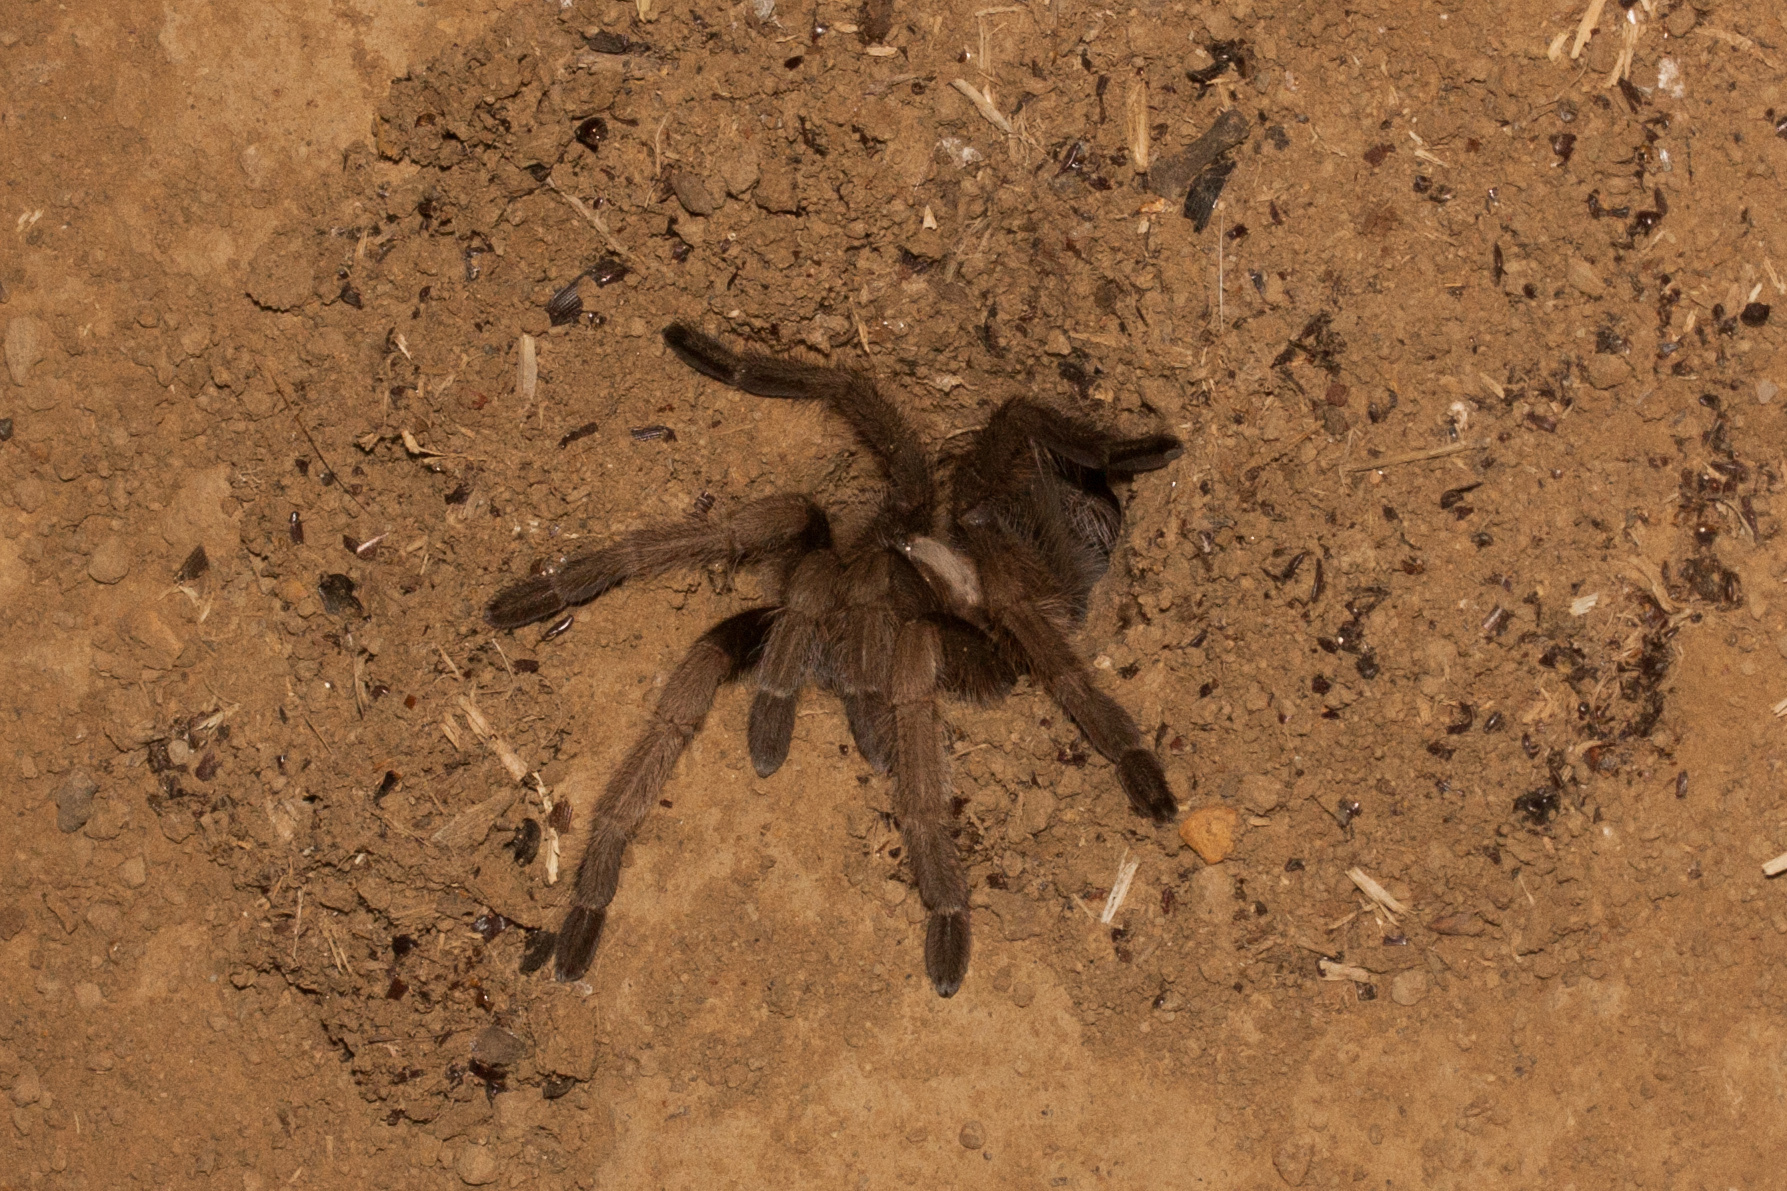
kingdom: Animalia
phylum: Arthropoda
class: Arachnida
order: Araneae
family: Theraphosidae
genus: Aphonopelma
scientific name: Aphonopelma iodius
